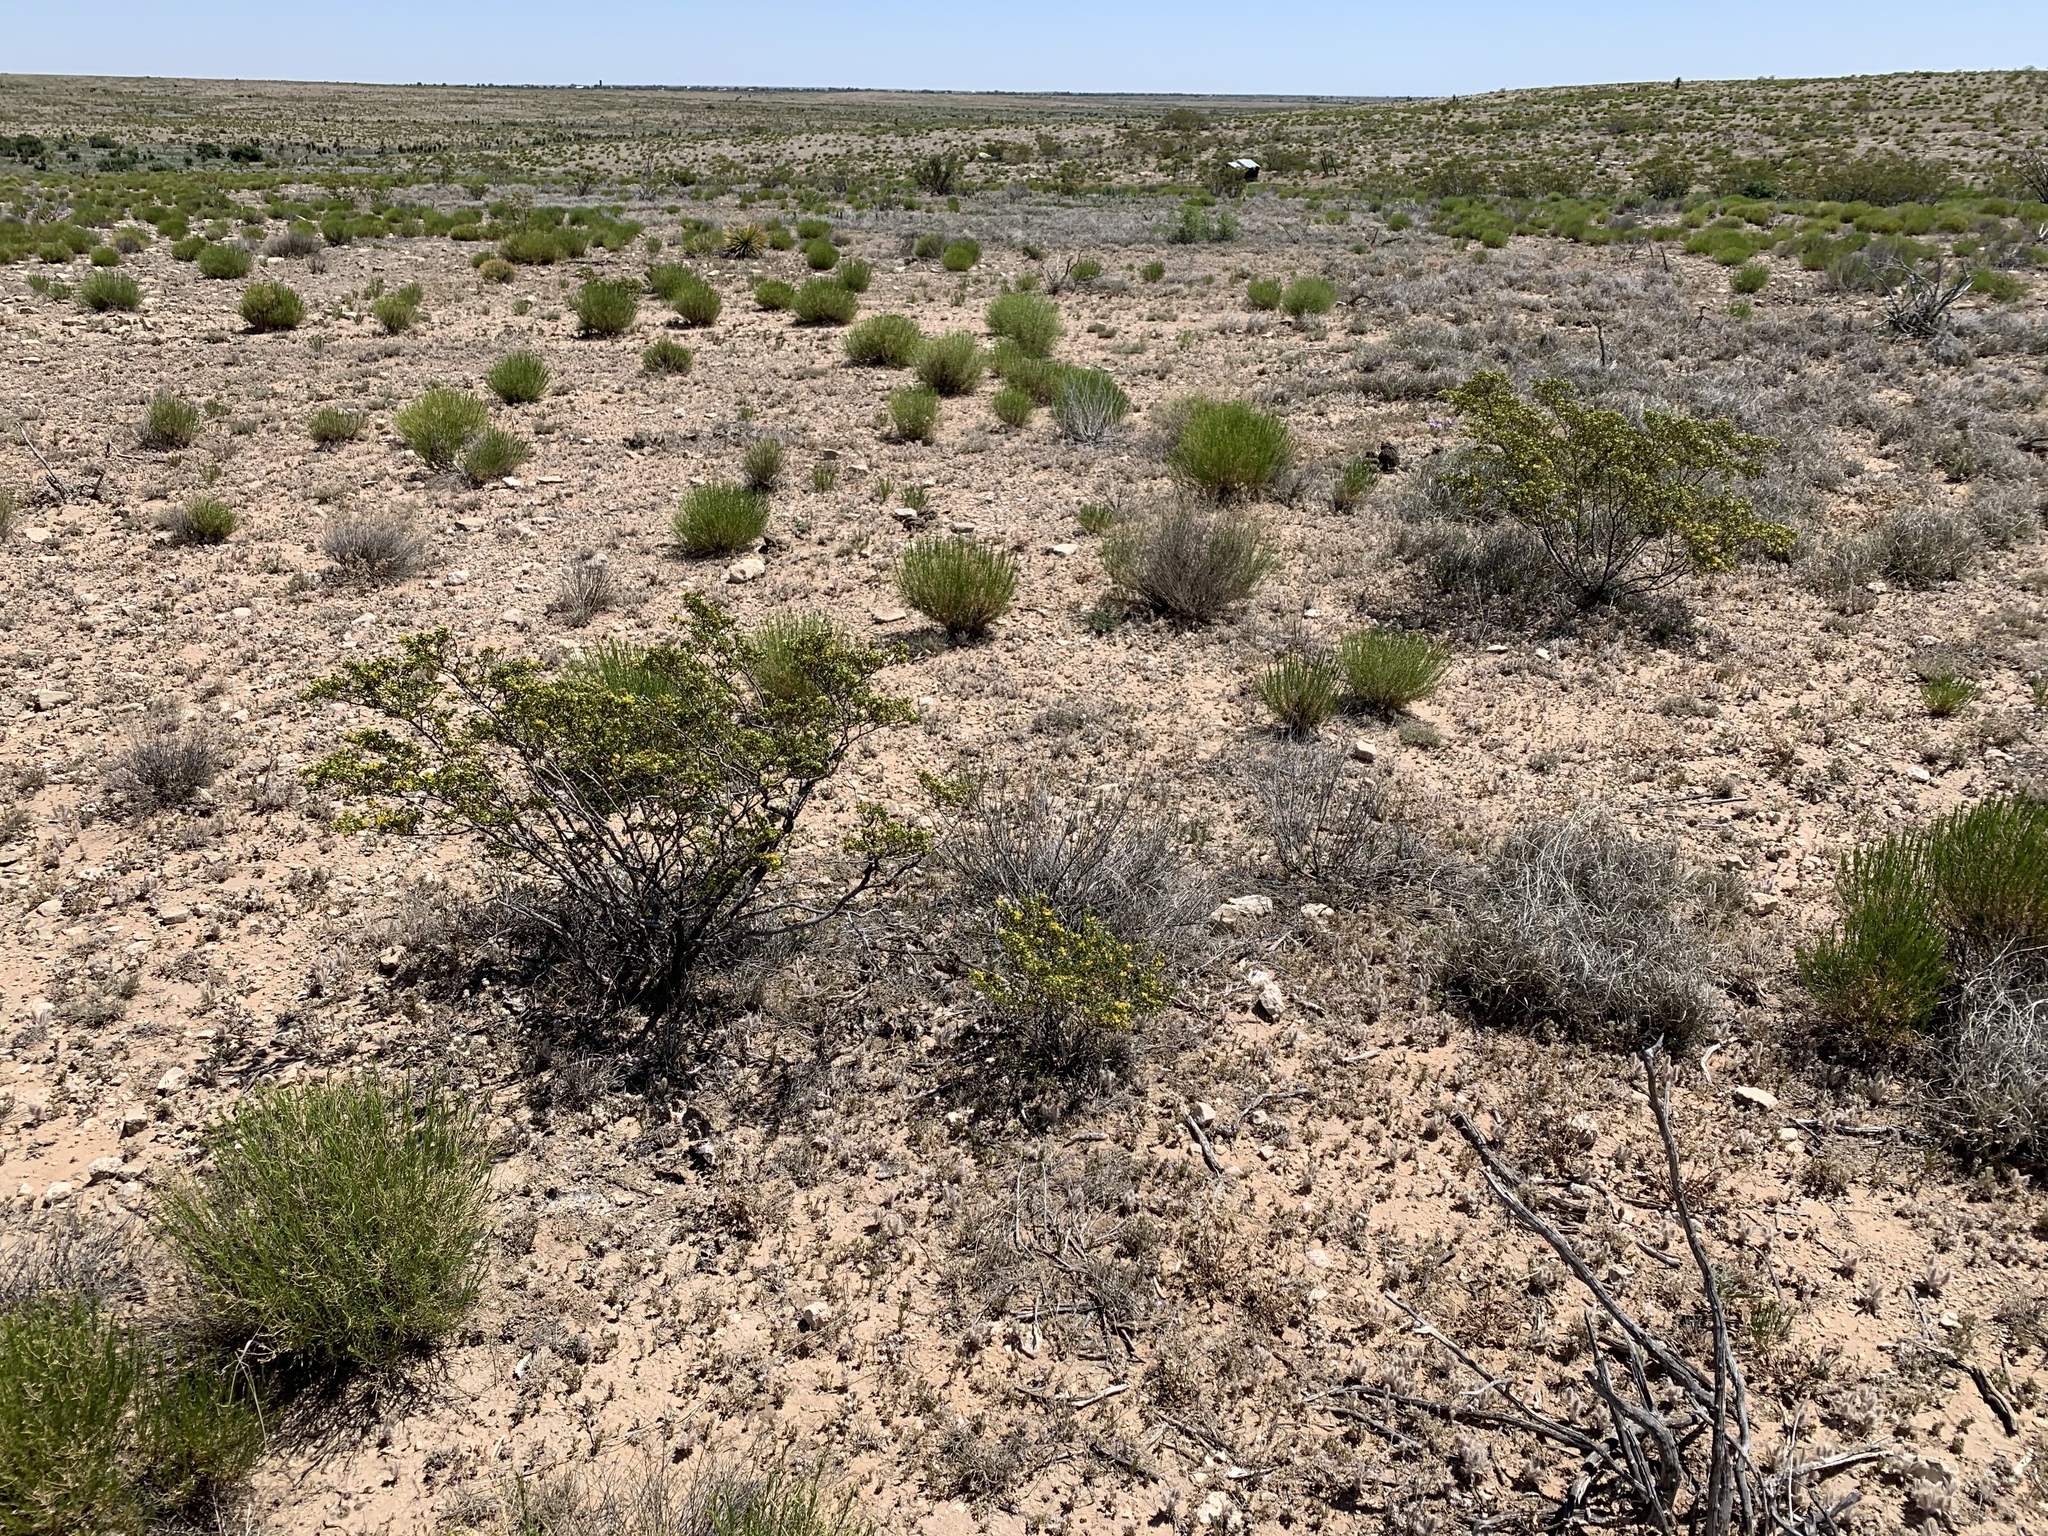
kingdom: Plantae
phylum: Tracheophyta
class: Magnoliopsida
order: Zygophyllales
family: Zygophyllaceae
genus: Larrea
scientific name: Larrea tridentata
